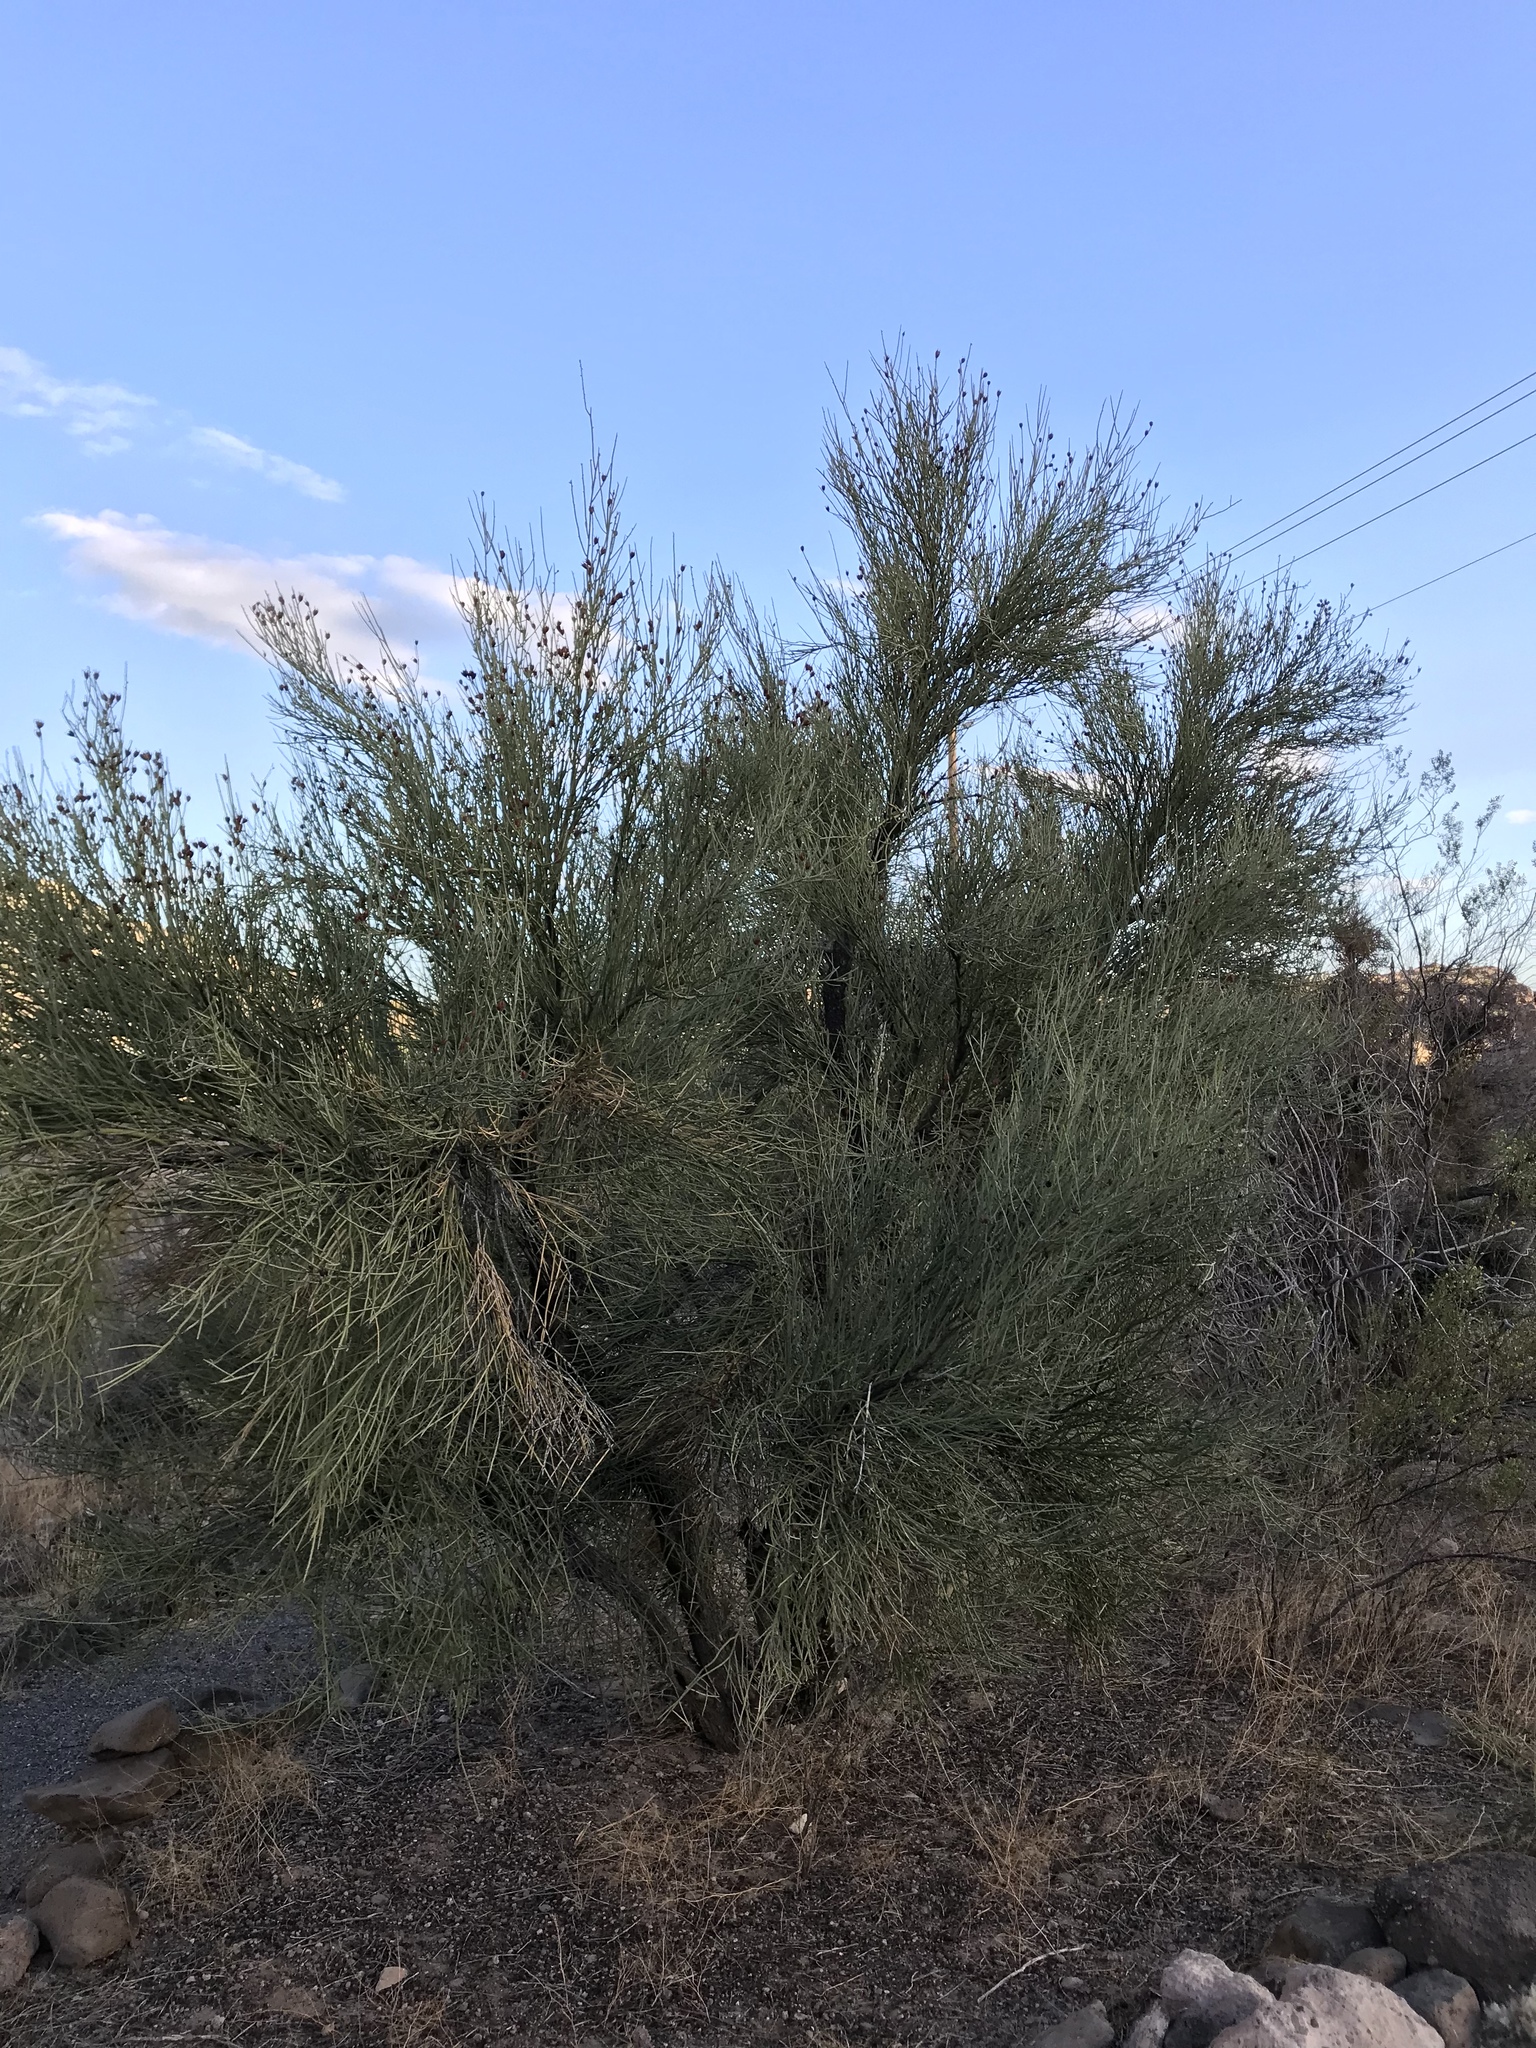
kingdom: Plantae
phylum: Tracheophyta
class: Magnoliopsida
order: Celastrales
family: Celastraceae
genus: Canotia
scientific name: Canotia holacantha
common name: Crucifixion thorns
